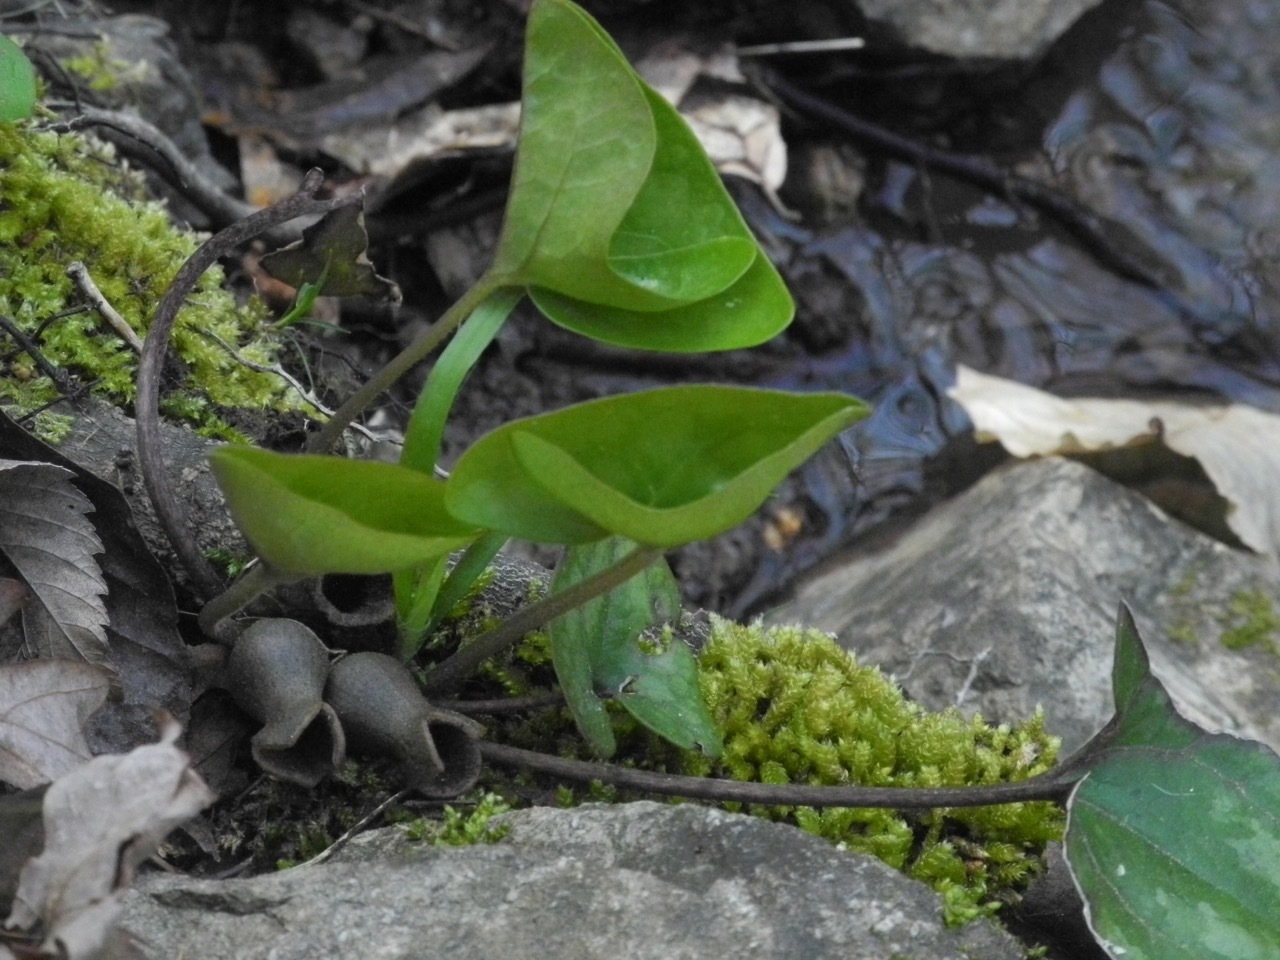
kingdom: Plantae
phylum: Tracheophyta
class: Magnoliopsida
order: Piperales
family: Aristolochiaceae
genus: Hexastylis
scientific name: Hexastylis arifolia
